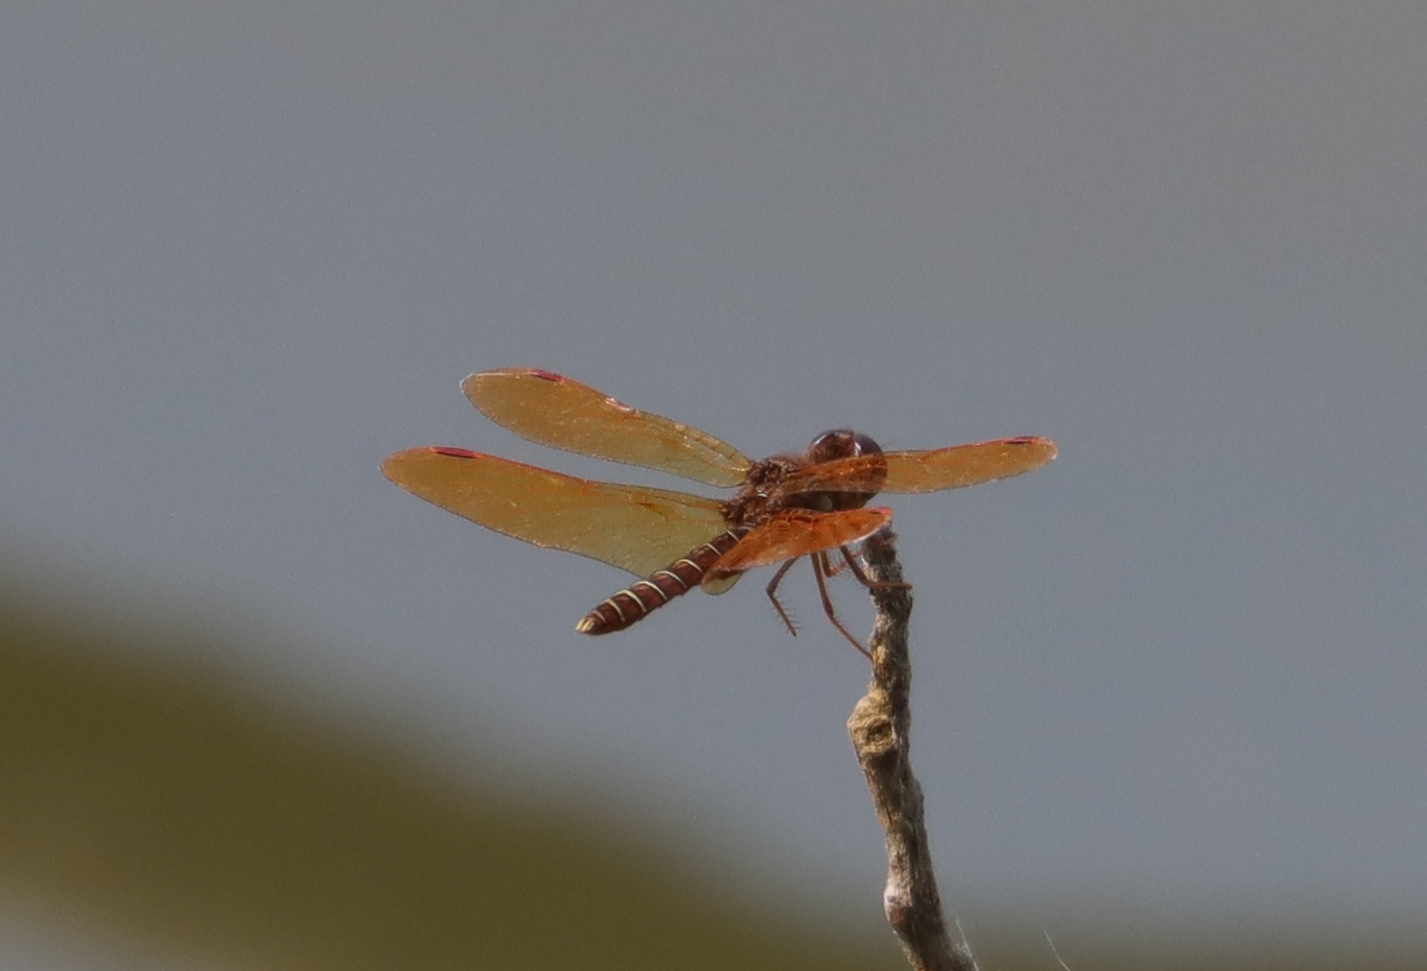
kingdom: Animalia
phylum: Arthropoda
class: Insecta
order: Odonata
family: Libellulidae
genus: Perithemis
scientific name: Perithemis tenera
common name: Eastern amberwing
